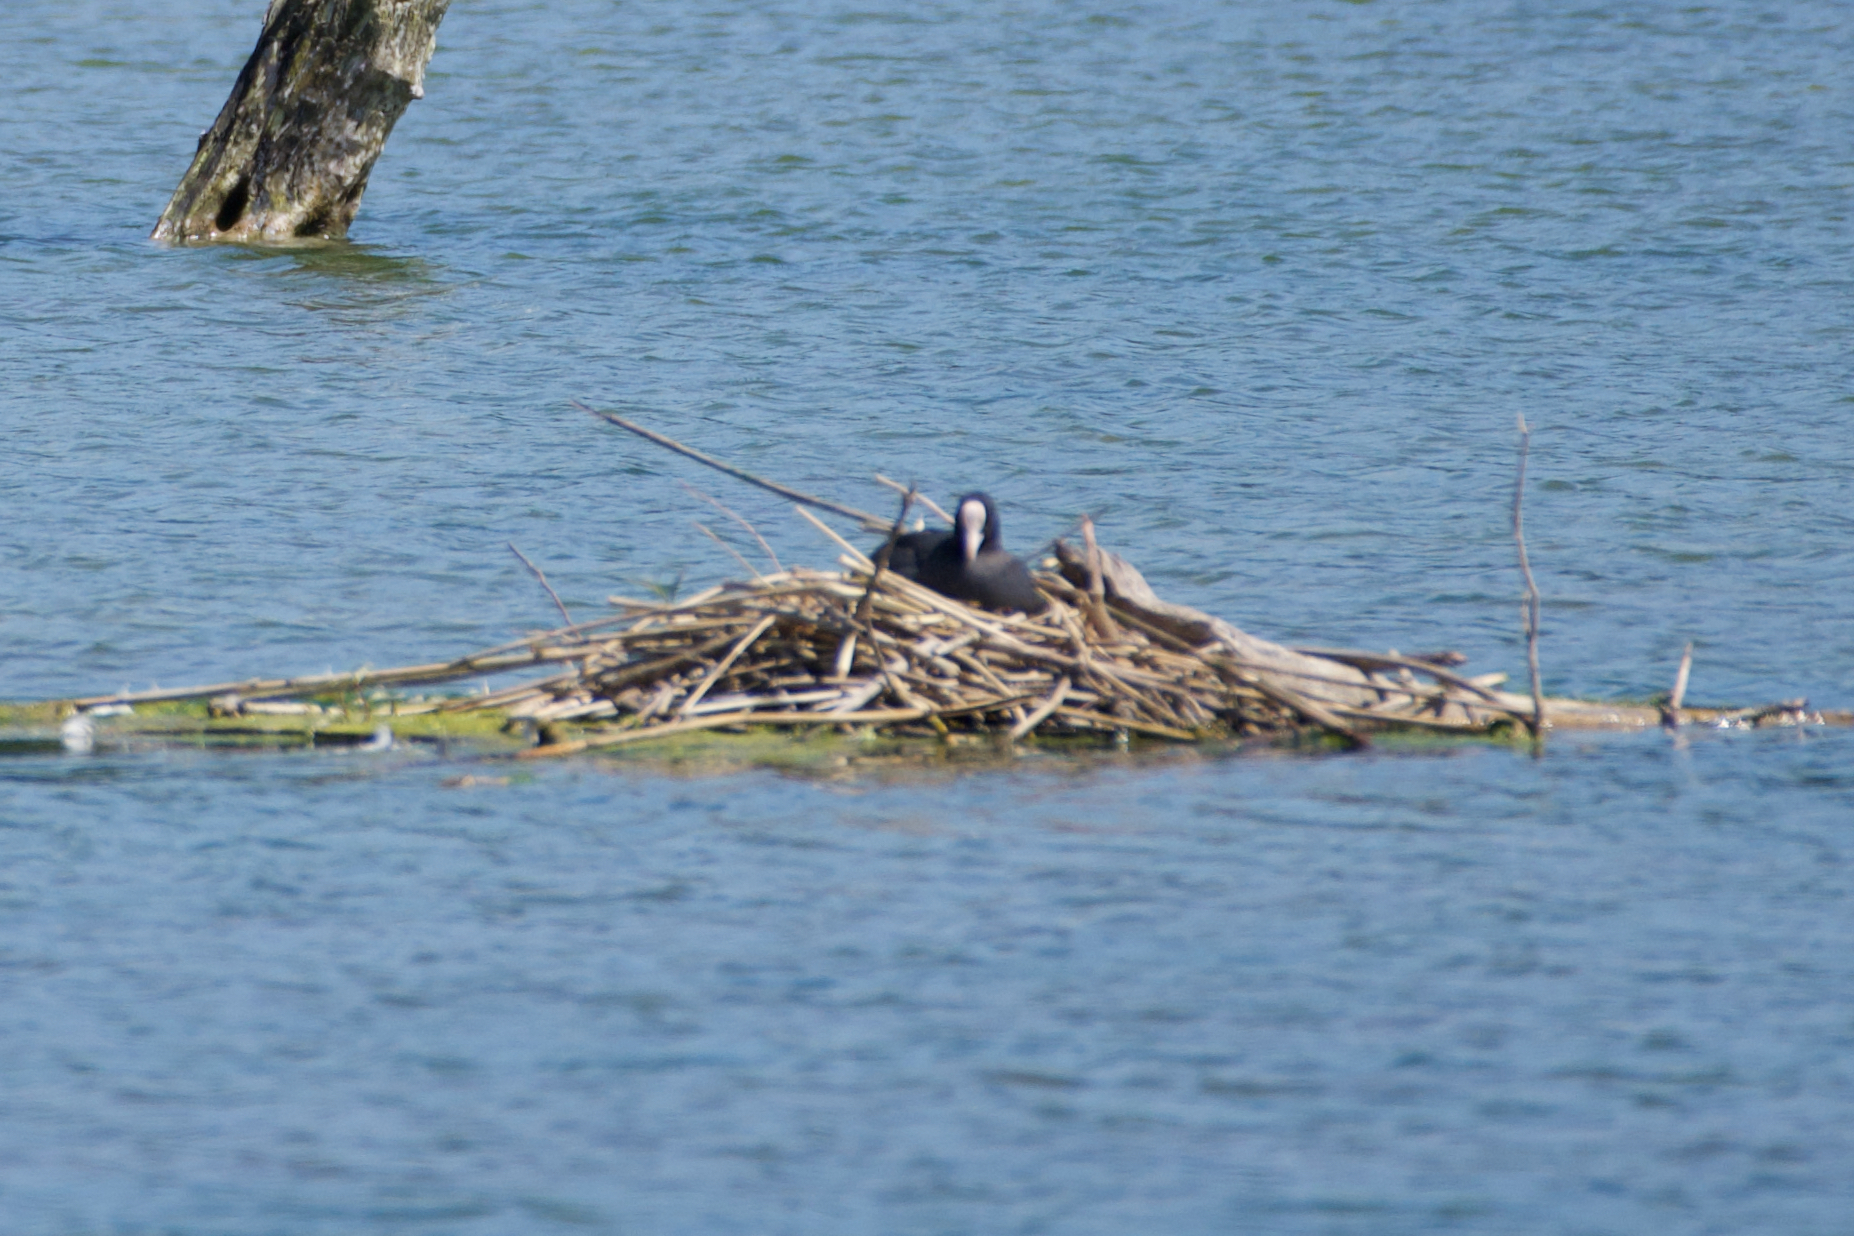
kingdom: Animalia
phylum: Chordata
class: Aves
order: Gruiformes
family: Rallidae
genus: Fulica
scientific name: Fulica atra
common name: Eurasian coot
